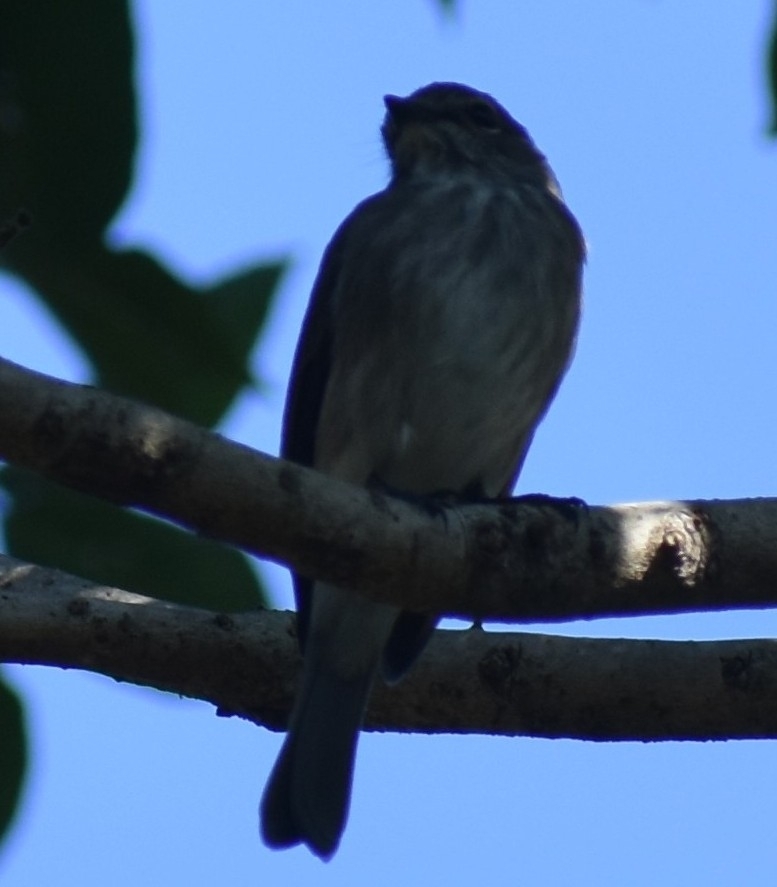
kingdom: Animalia
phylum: Chordata
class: Aves
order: Passeriformes
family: Muscicapidae
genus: Muscicapa
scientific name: Muscicapa adusta
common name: African dusky flycatcher
